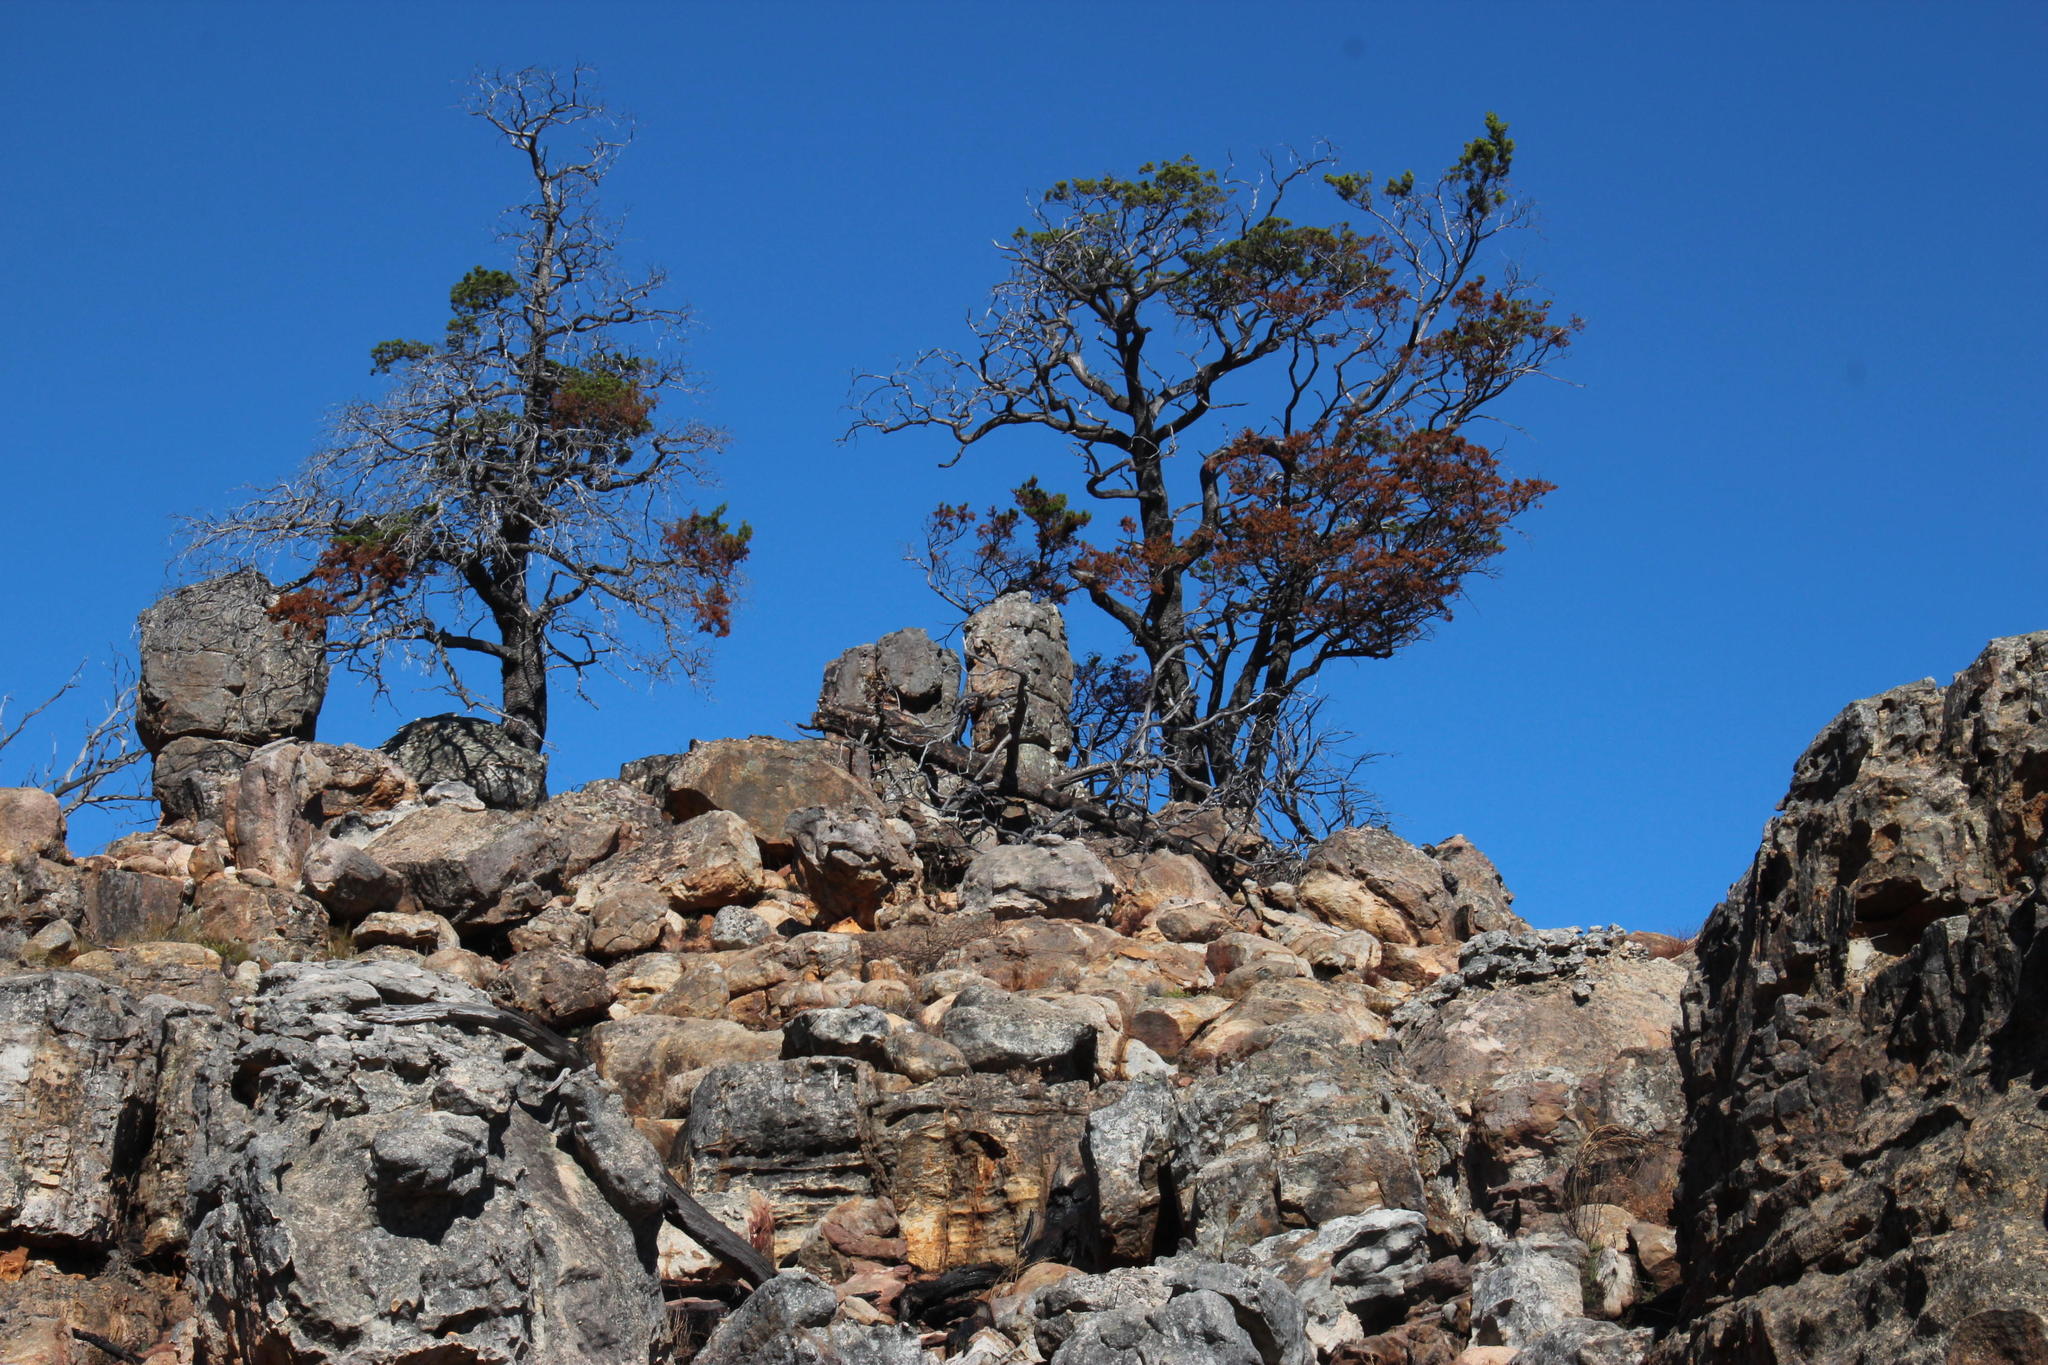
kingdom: Plantae
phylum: Tracheophyta
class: Pinopsida
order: Pinales
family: Cupressaceae
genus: Widdringtonia
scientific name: Widdringtonia nodiflora
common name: Cape cypress
